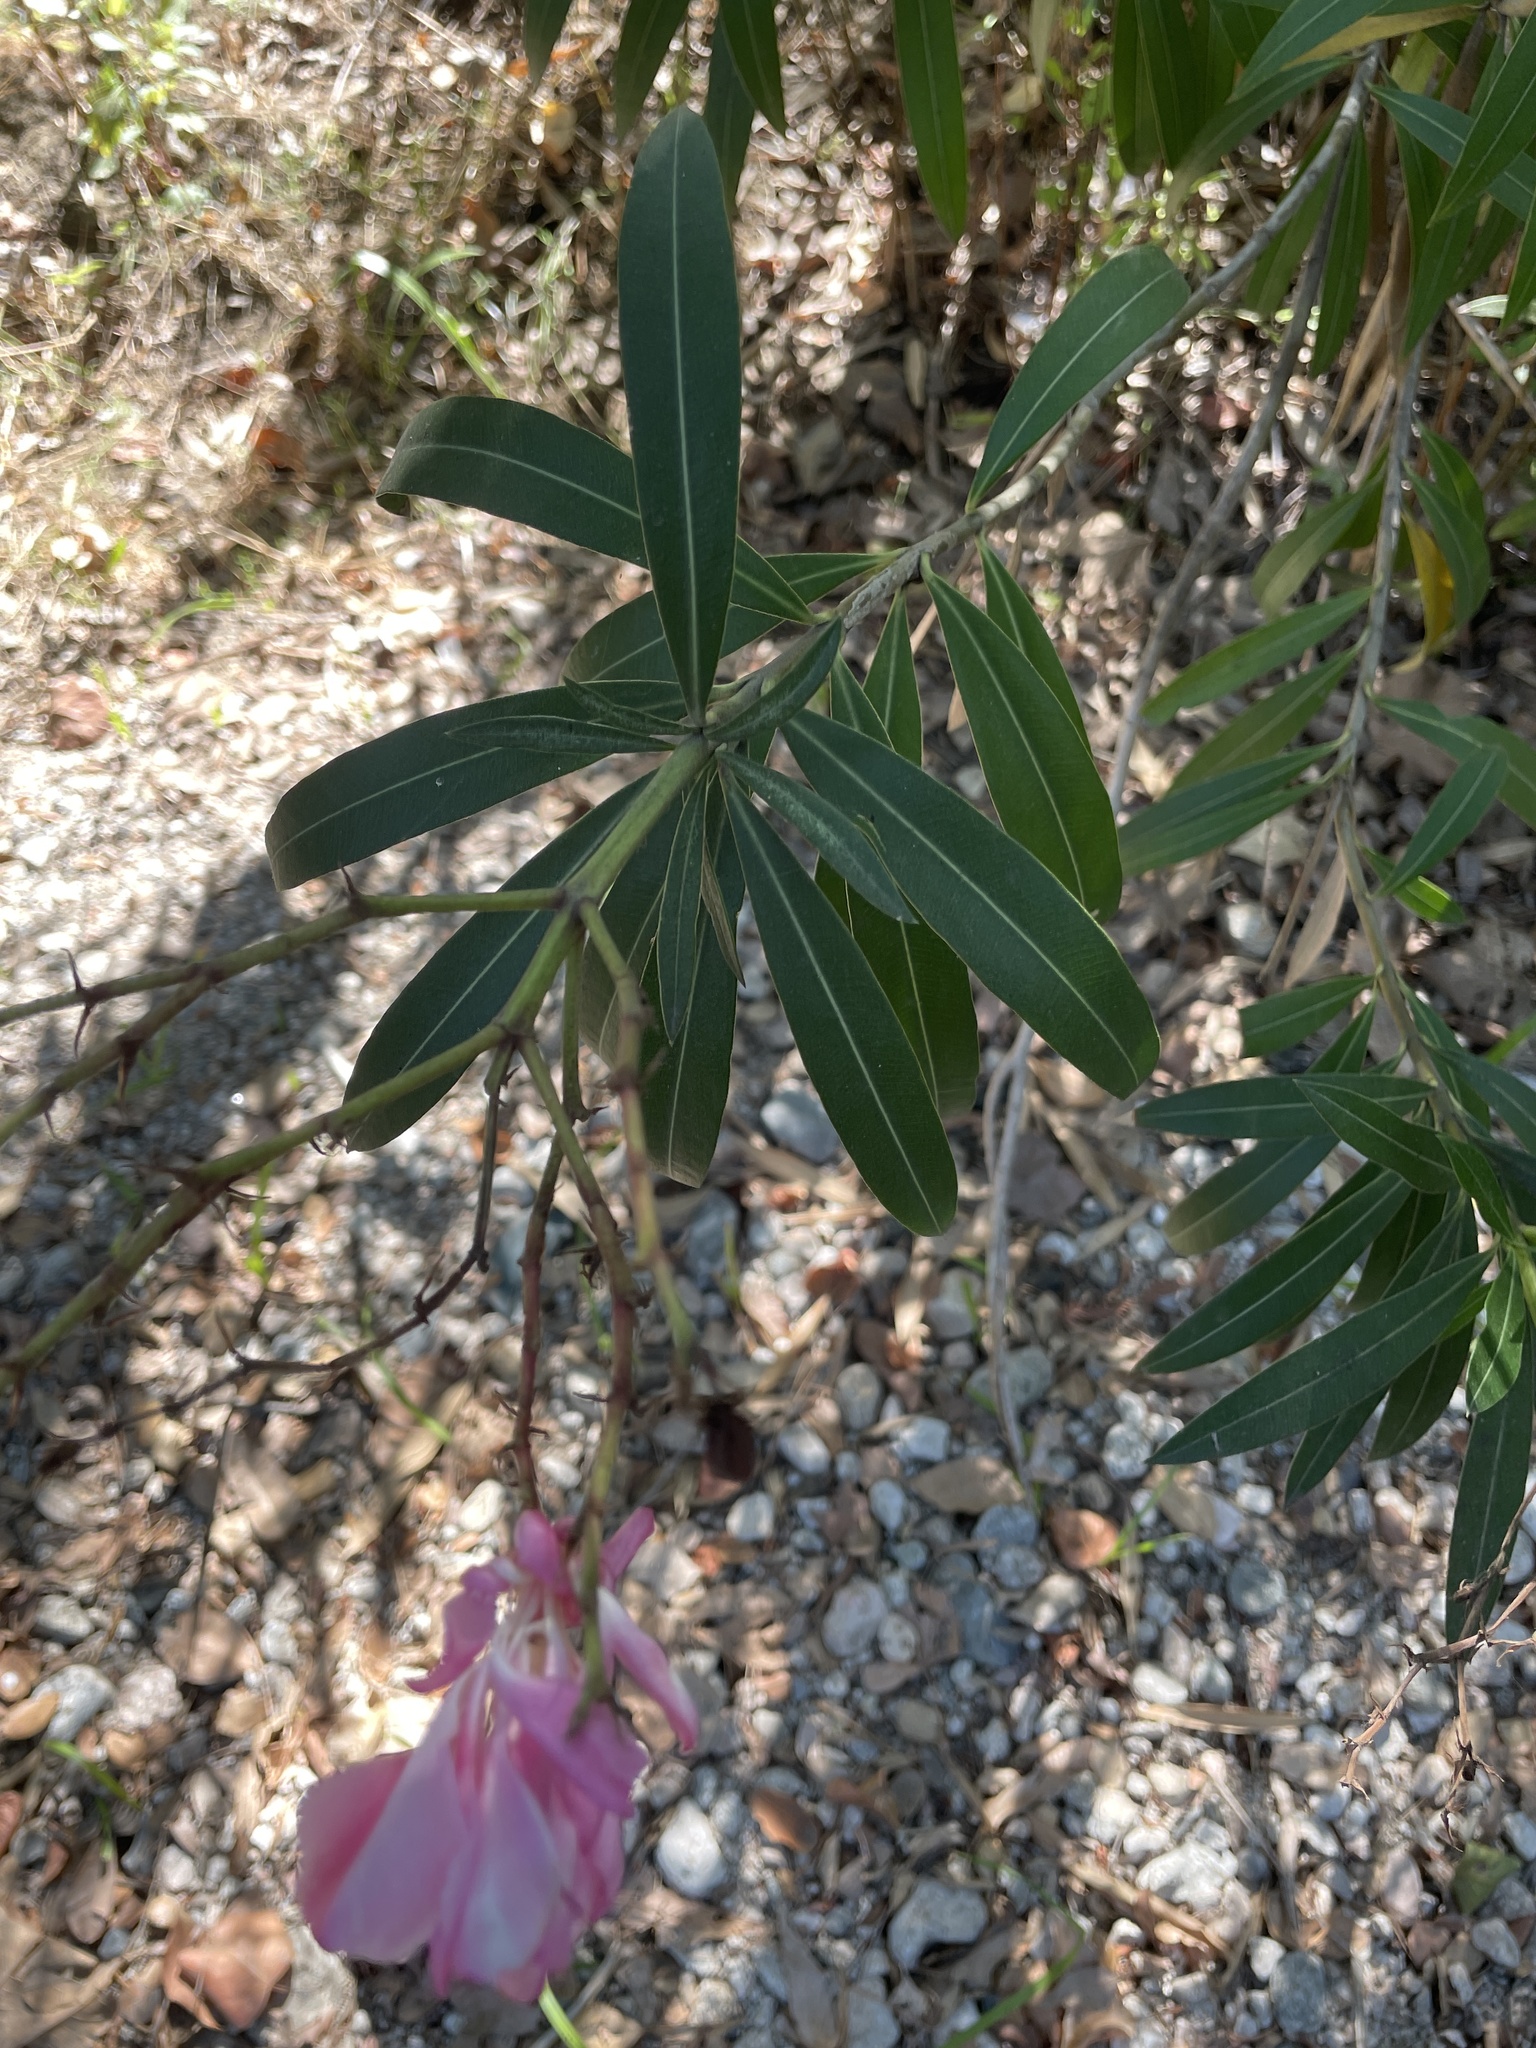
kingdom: Plantae
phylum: Tracheophyta
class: Magnoliopsida
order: Gentianales
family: Apocynaceae
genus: Nerium
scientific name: Nerium oleander
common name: Oleander
